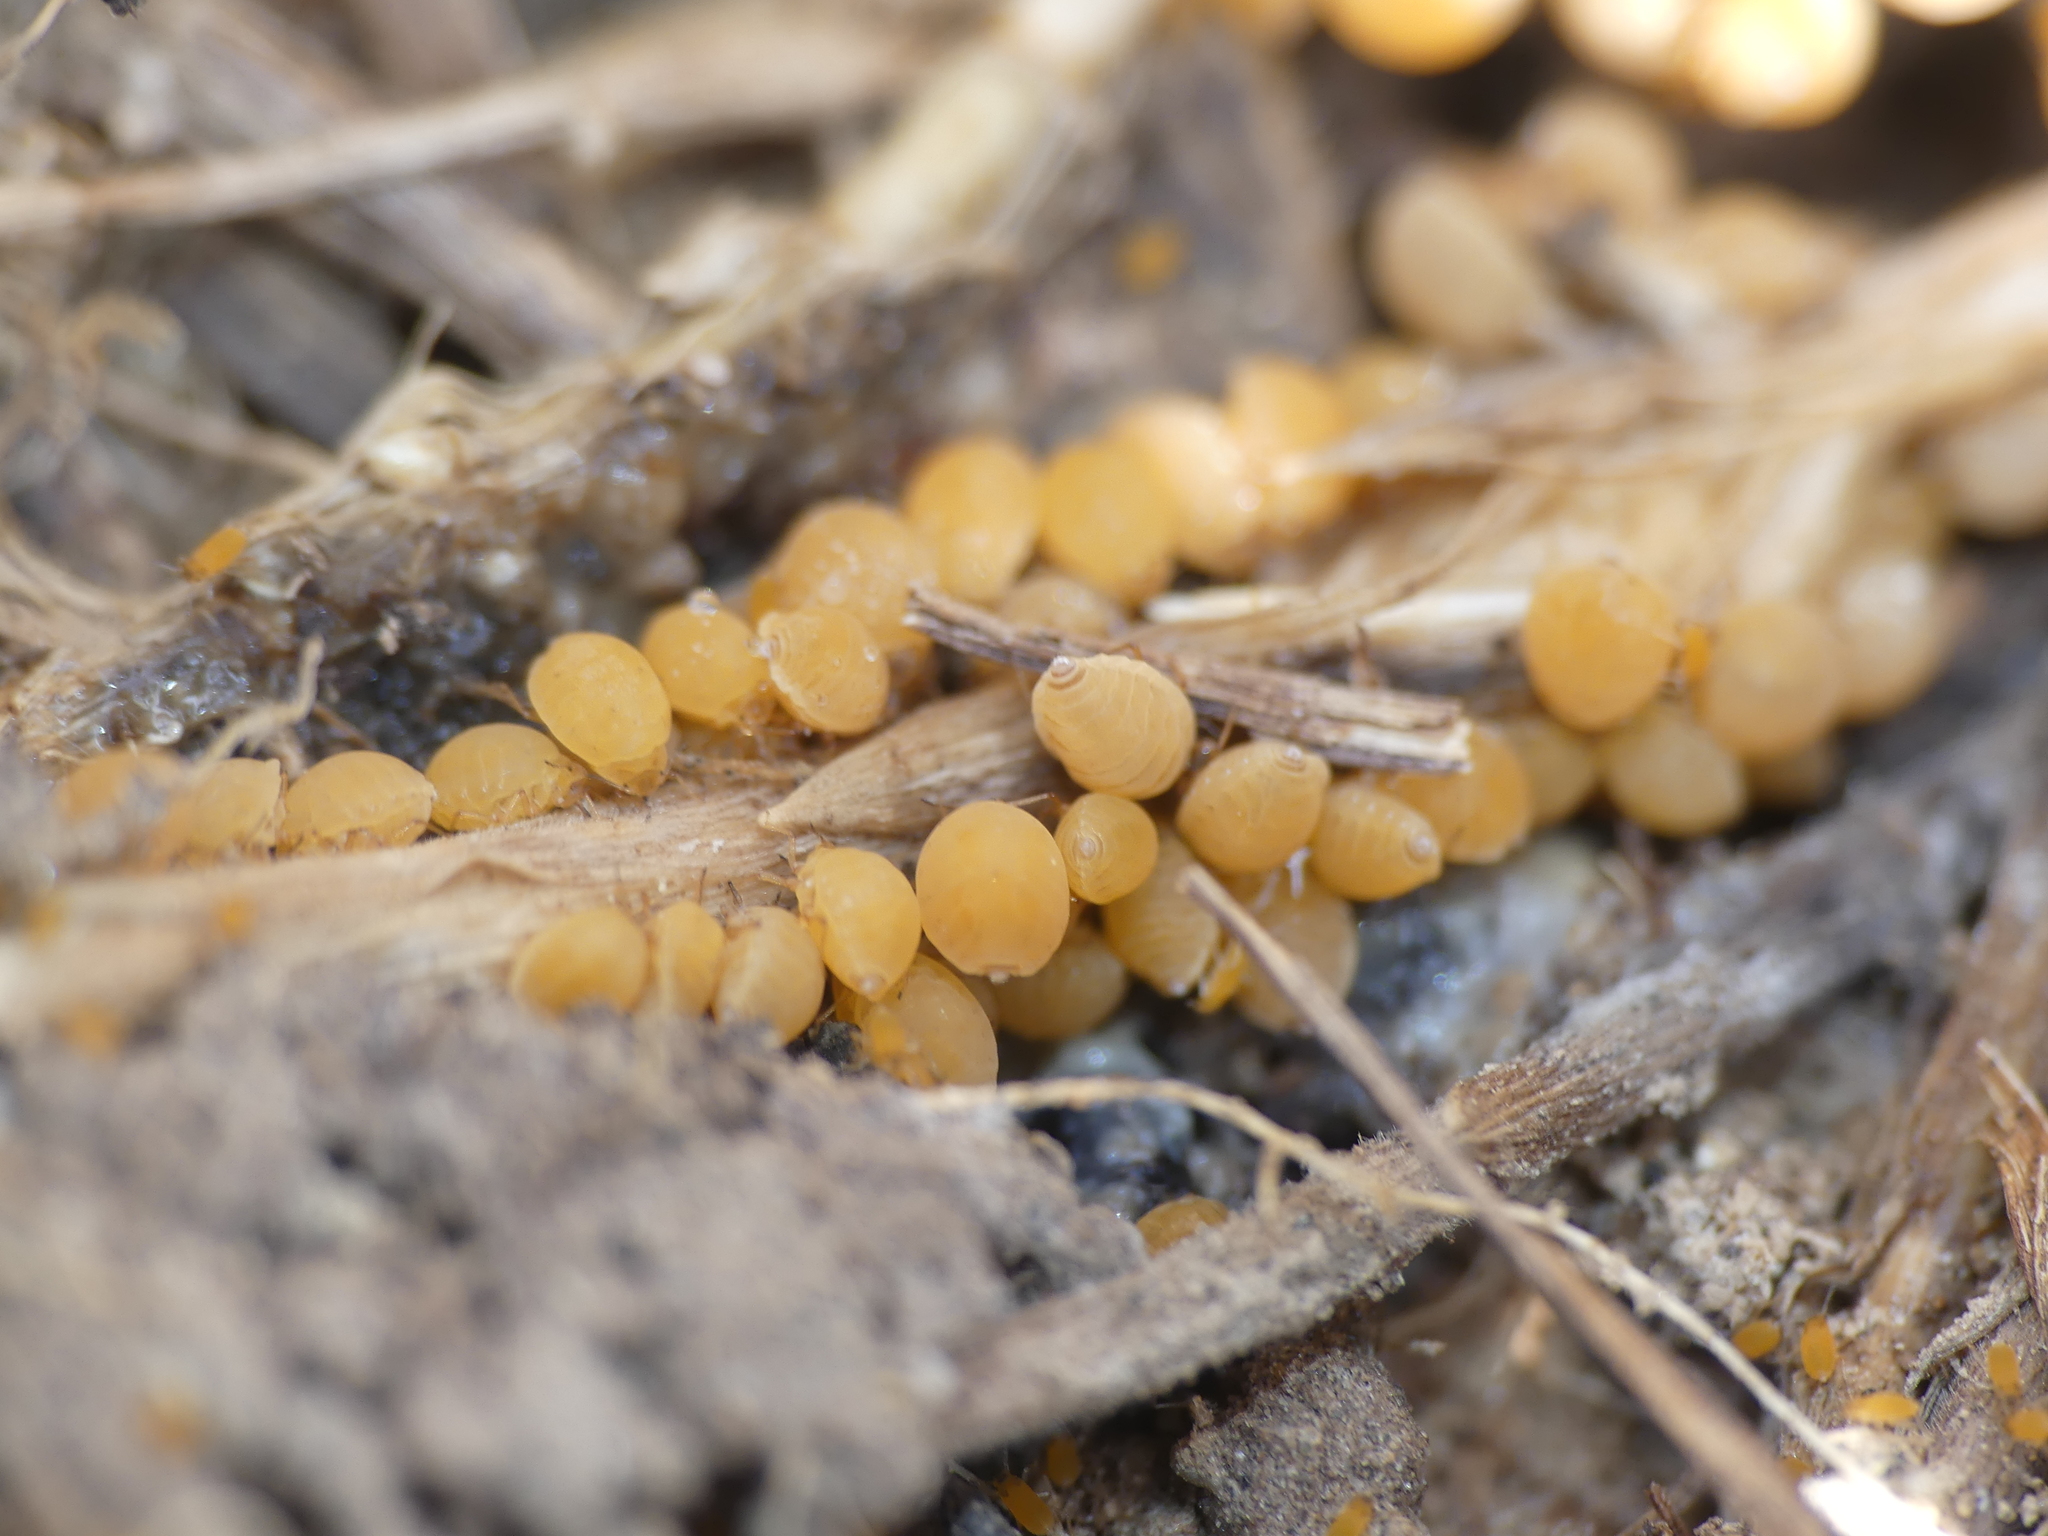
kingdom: Animalia
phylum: Arthropoda
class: Insecta
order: Hemiptera
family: Aphididae
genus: Forda
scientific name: Forda marginata
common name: Root aphid
